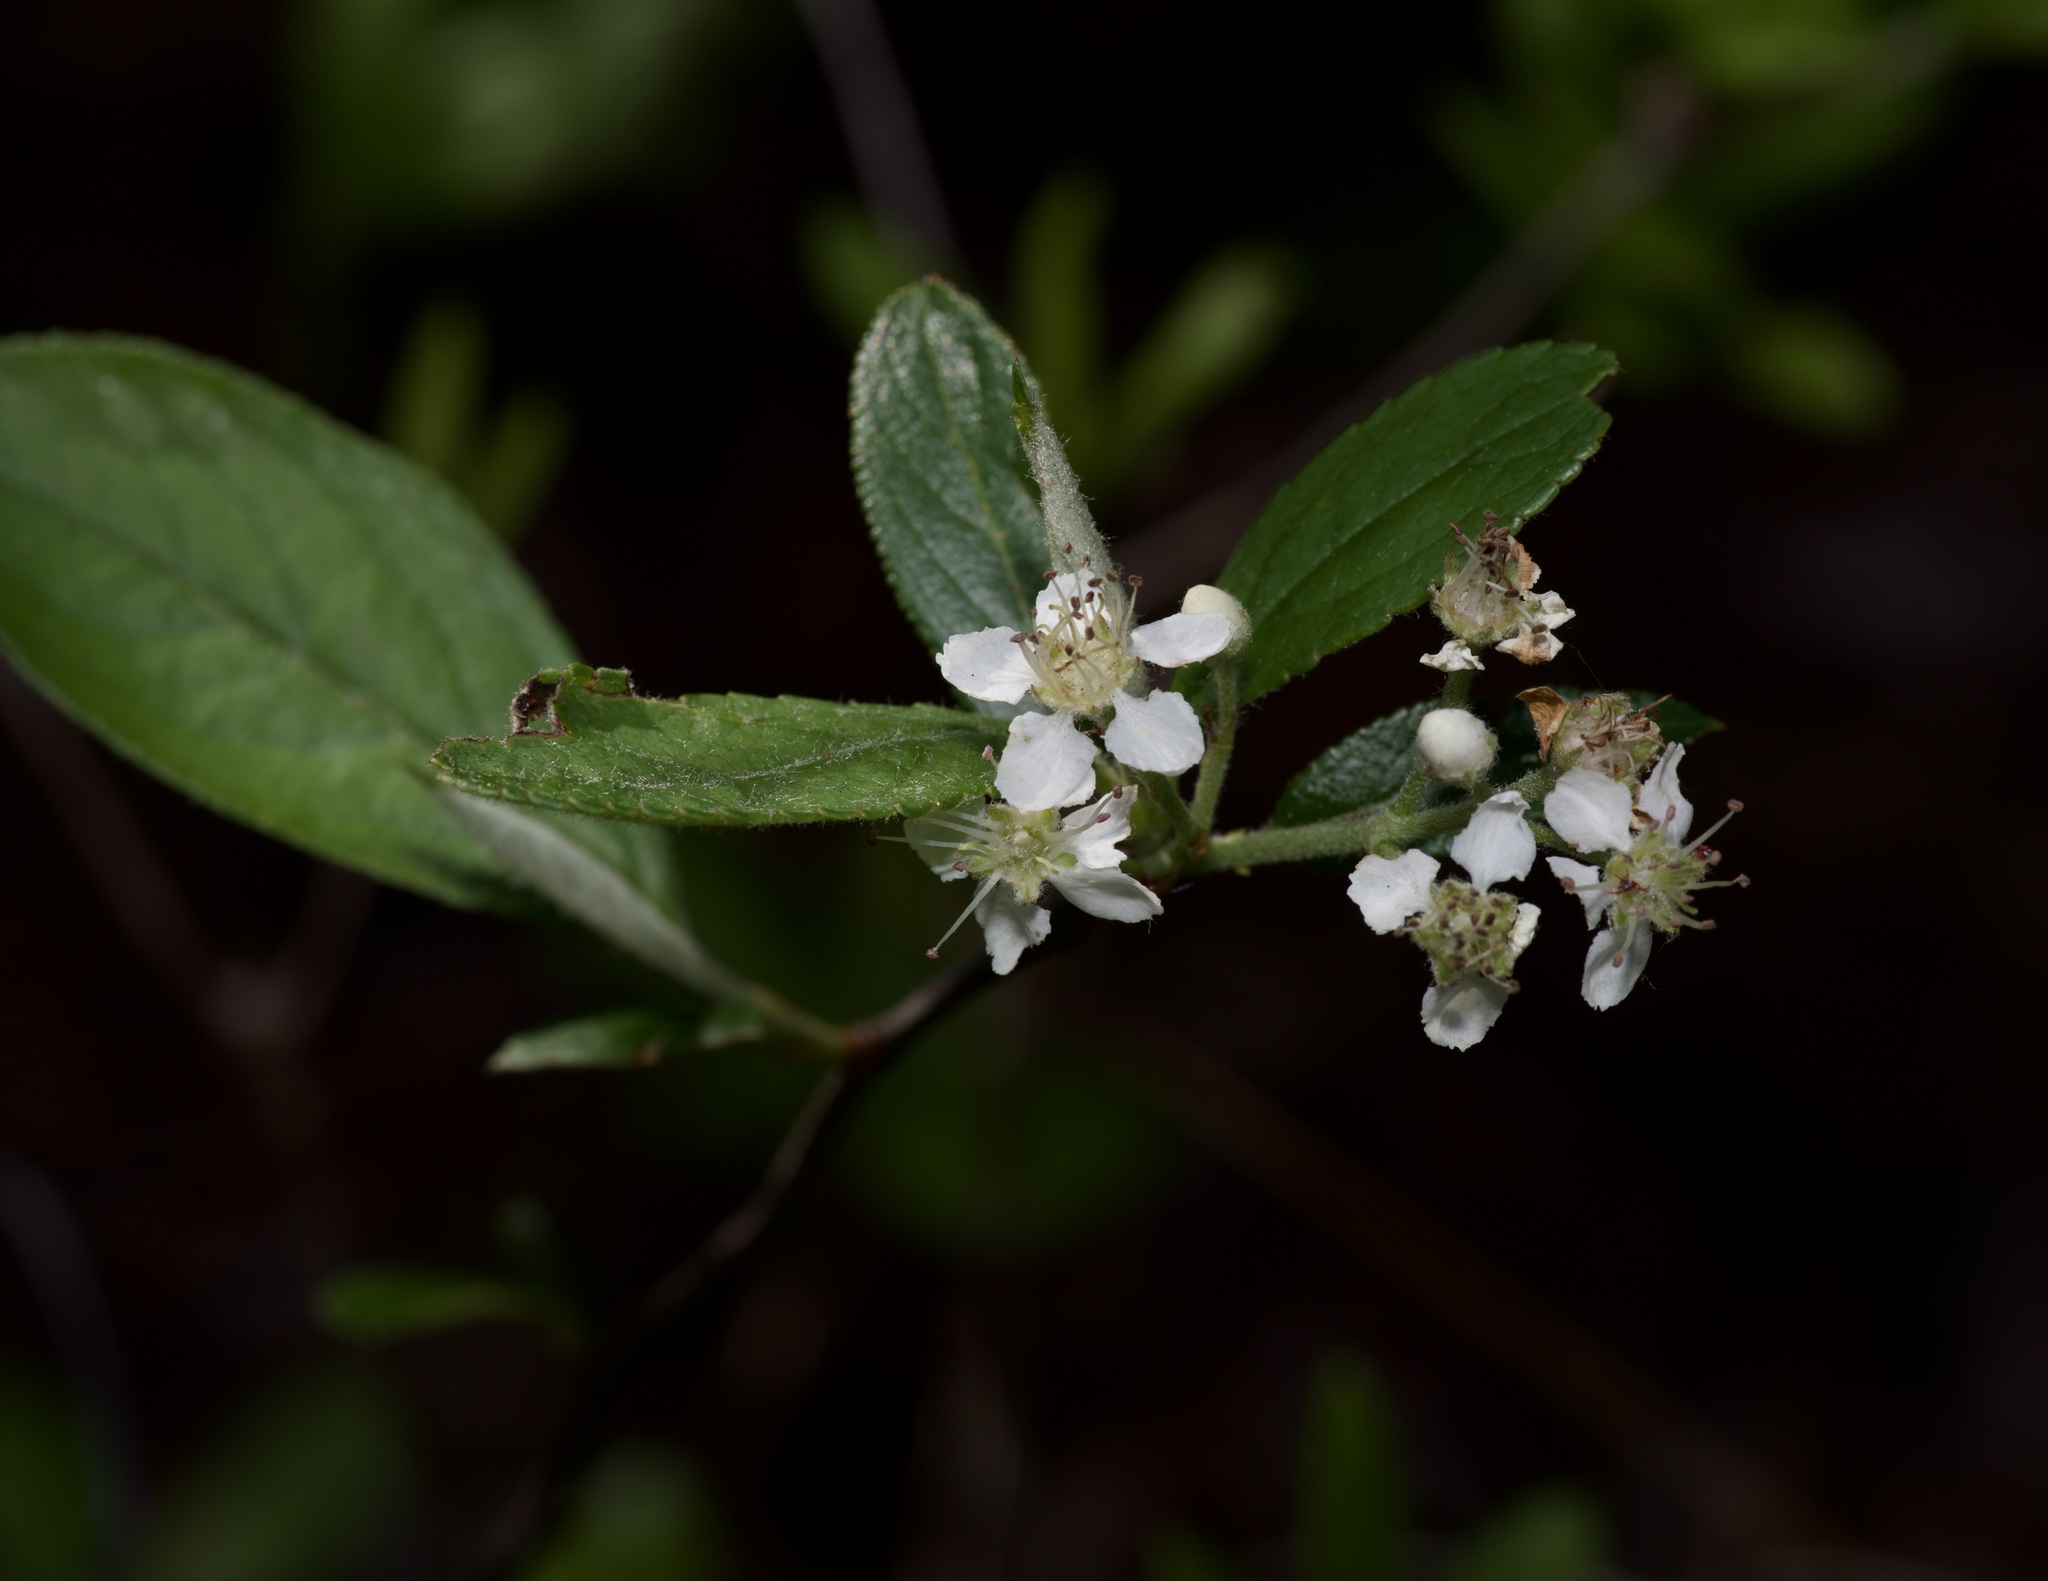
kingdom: Plantae
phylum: Tracheophyta
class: Magnoliopsida
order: Rosales
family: Rosaceae
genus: Aronia
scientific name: Aronia arbutifolia
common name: Red chokeberry
